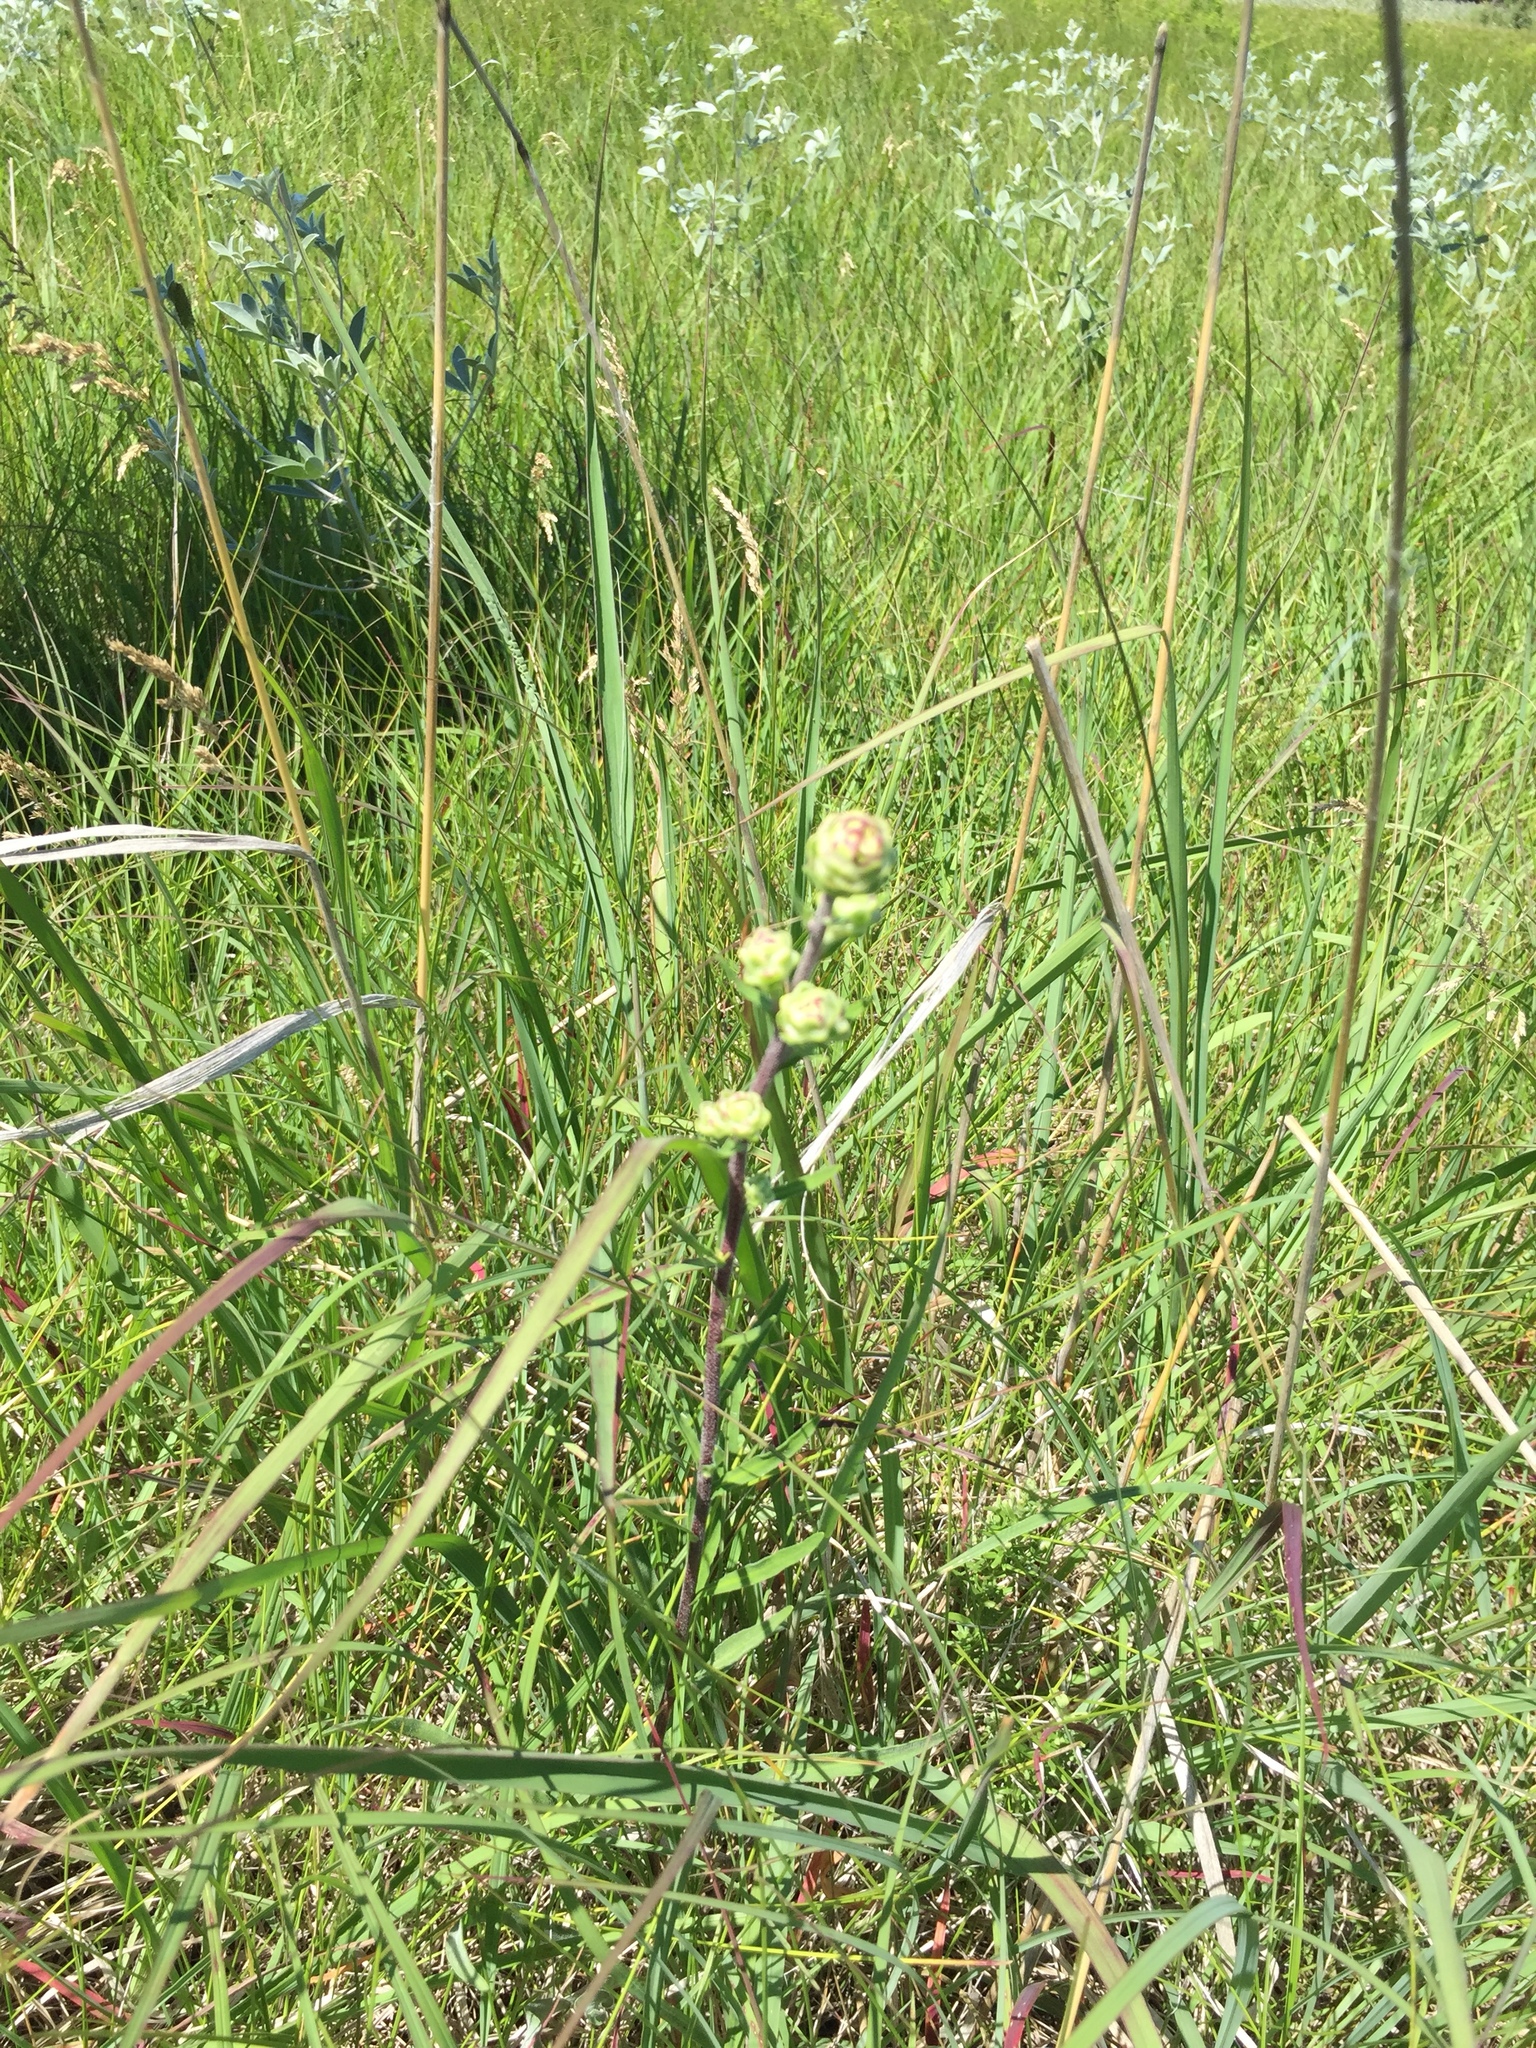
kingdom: Plantae
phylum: Tracheophyta
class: Magnoliopsida
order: Asterales
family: Asteraceae
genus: Liatris
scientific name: Liatris ligulistylis
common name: Northern plains gayfeather
